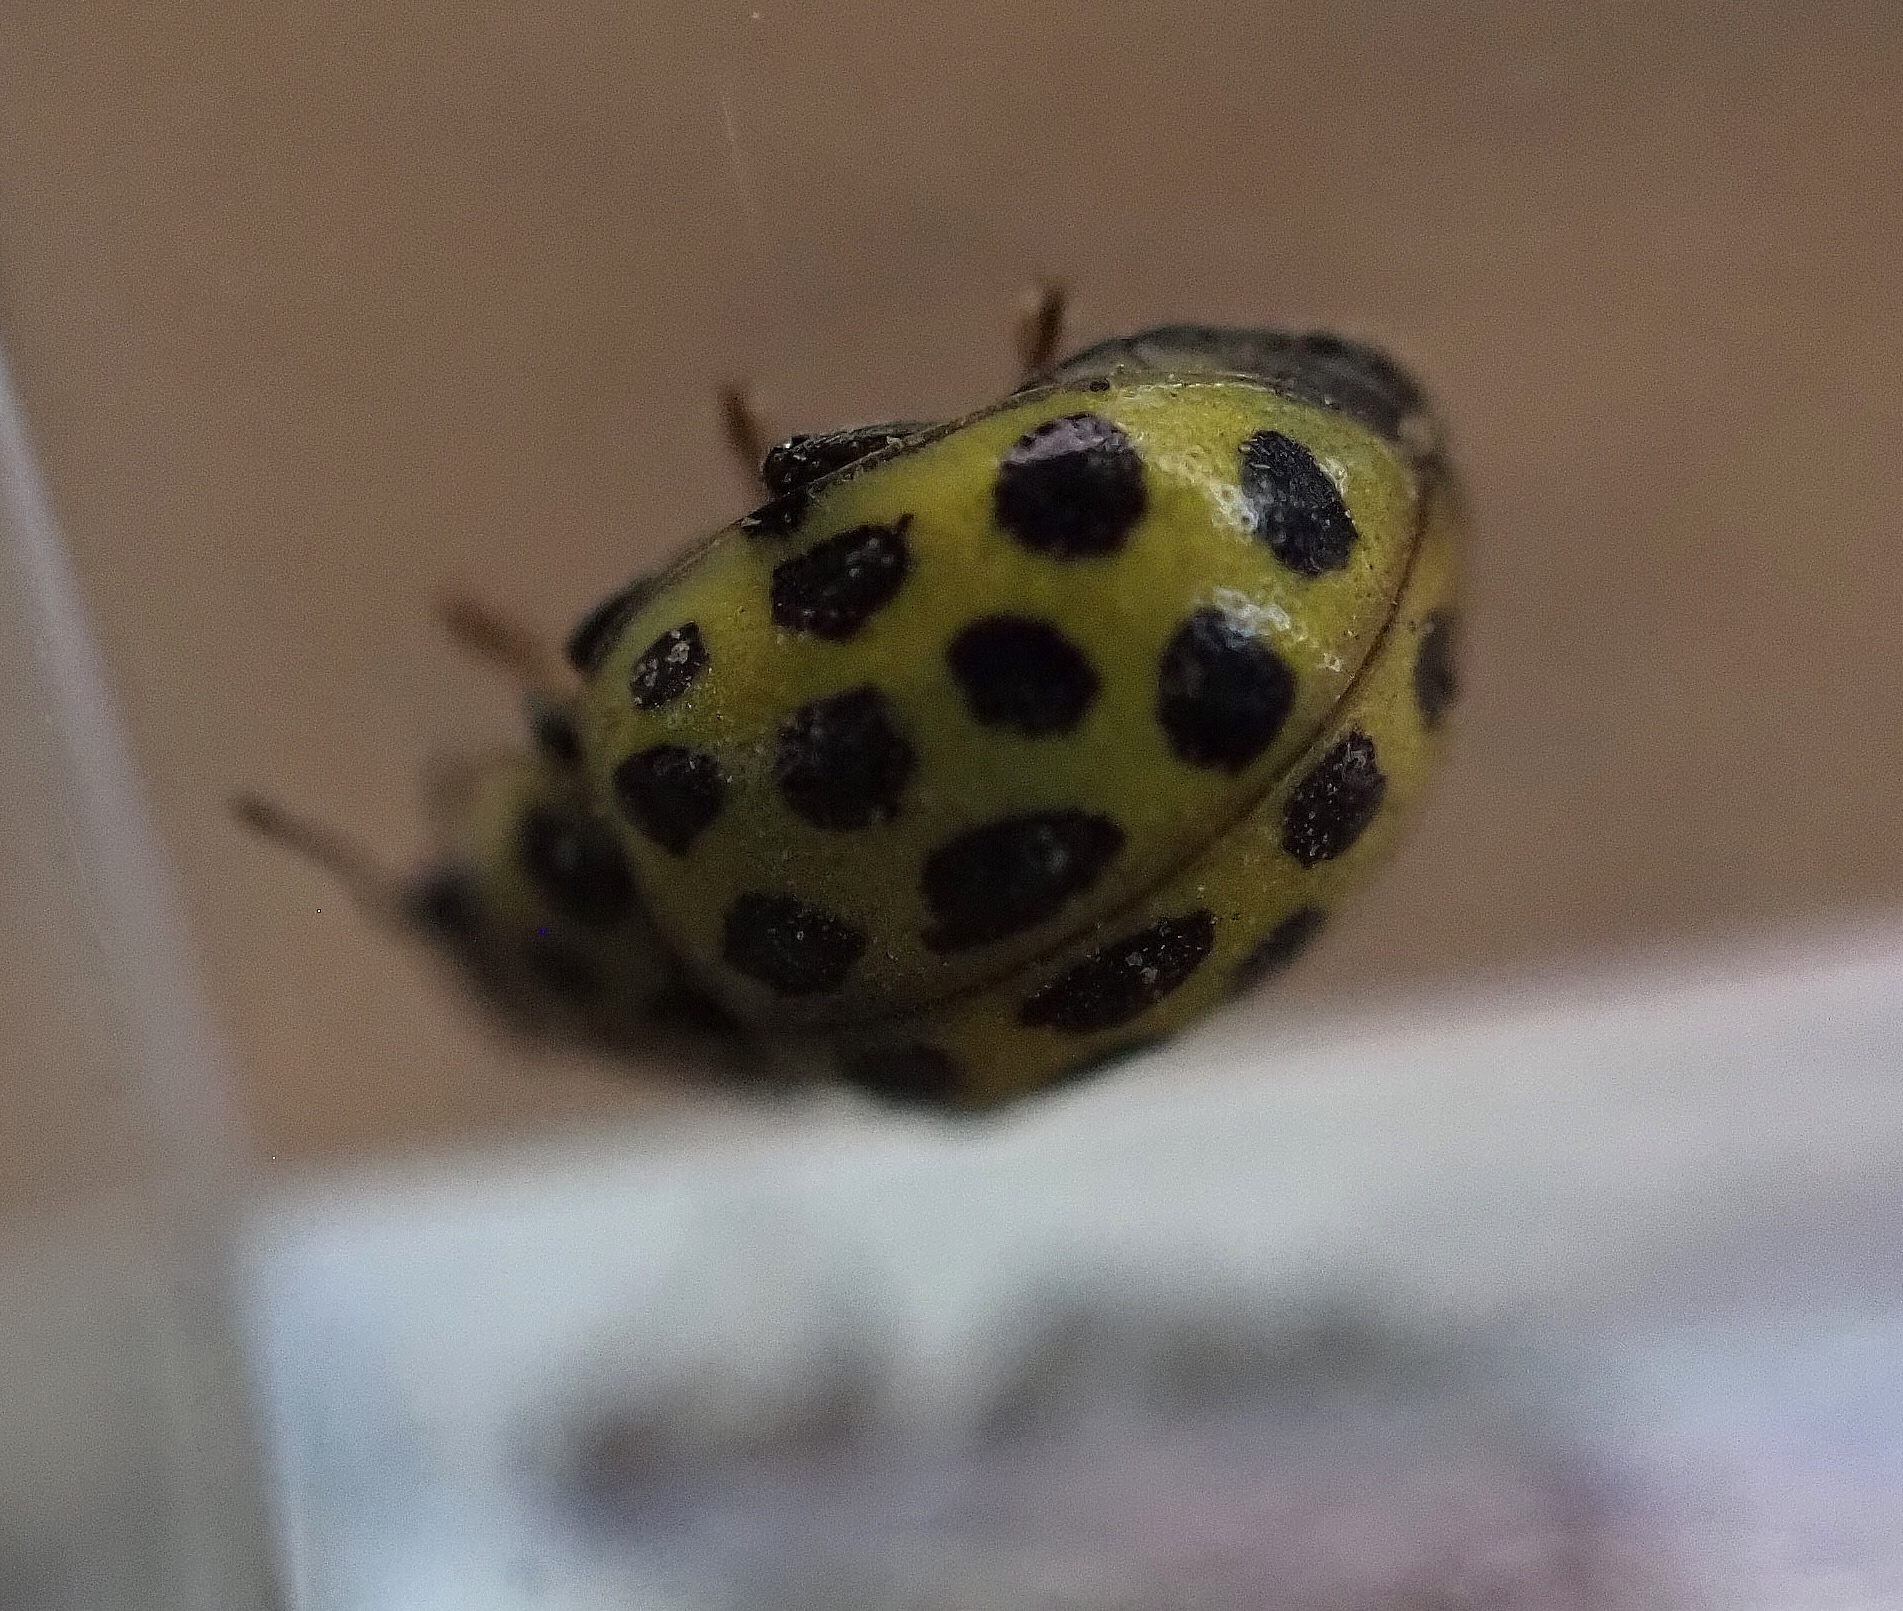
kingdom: Animalia
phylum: Arthropoda
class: Insecta
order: Coleoptera
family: Coccinellidae
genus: Psyllobora
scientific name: Psyllobora vigintiduopunctata
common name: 22-spot ladybird
